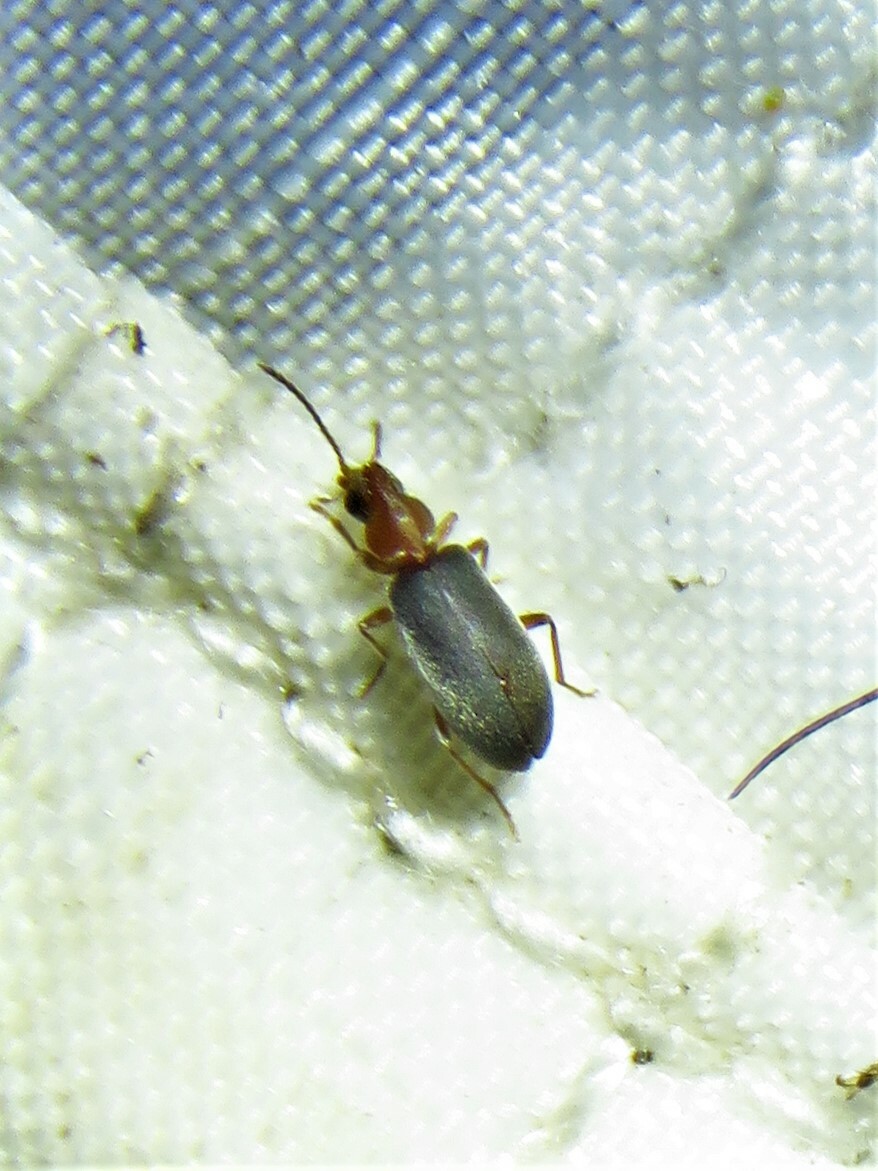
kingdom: Animalia
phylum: Arthropoda
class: Insecta
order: Coleoptera
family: Anthicidae
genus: Notoxus
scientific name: Notoxus murinipennis
